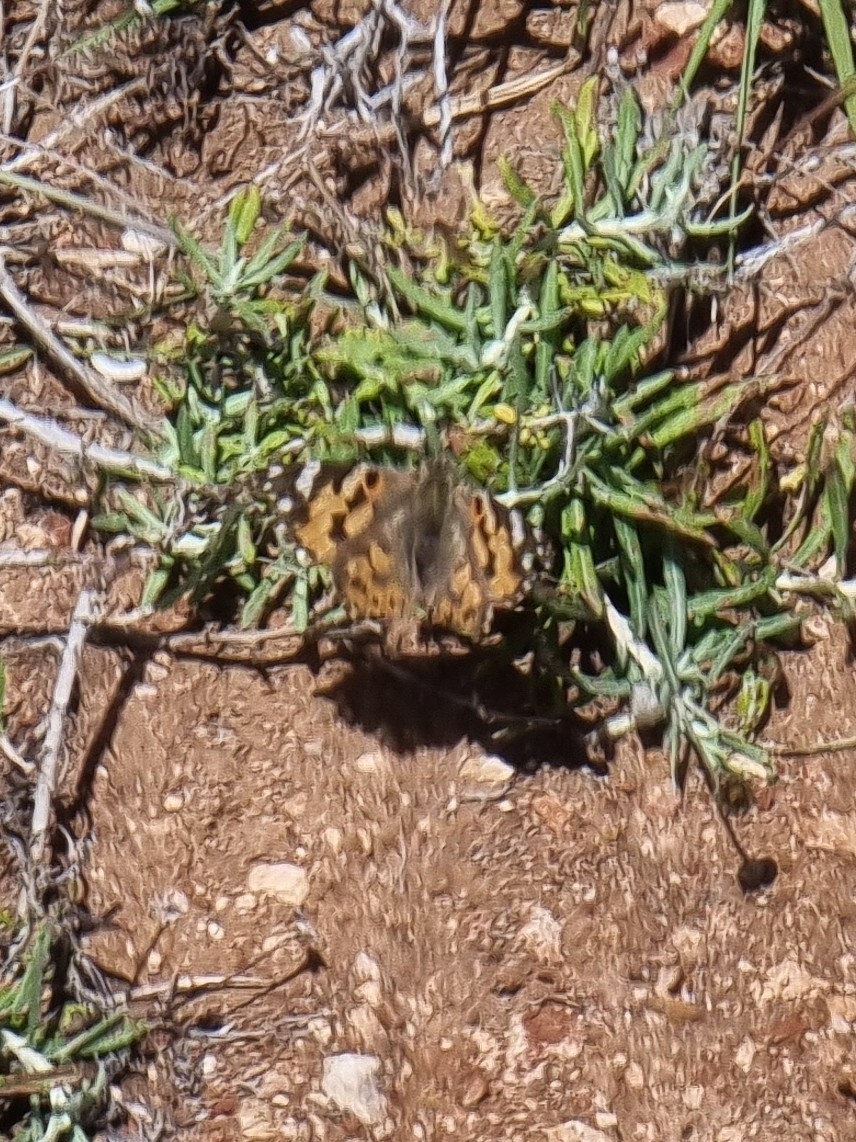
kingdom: Animalia
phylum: Arthropoda
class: Insecta
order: Lepidoptera
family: Nymphalidae
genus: Vanessa
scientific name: Vanessa cardui
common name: Painted lady
